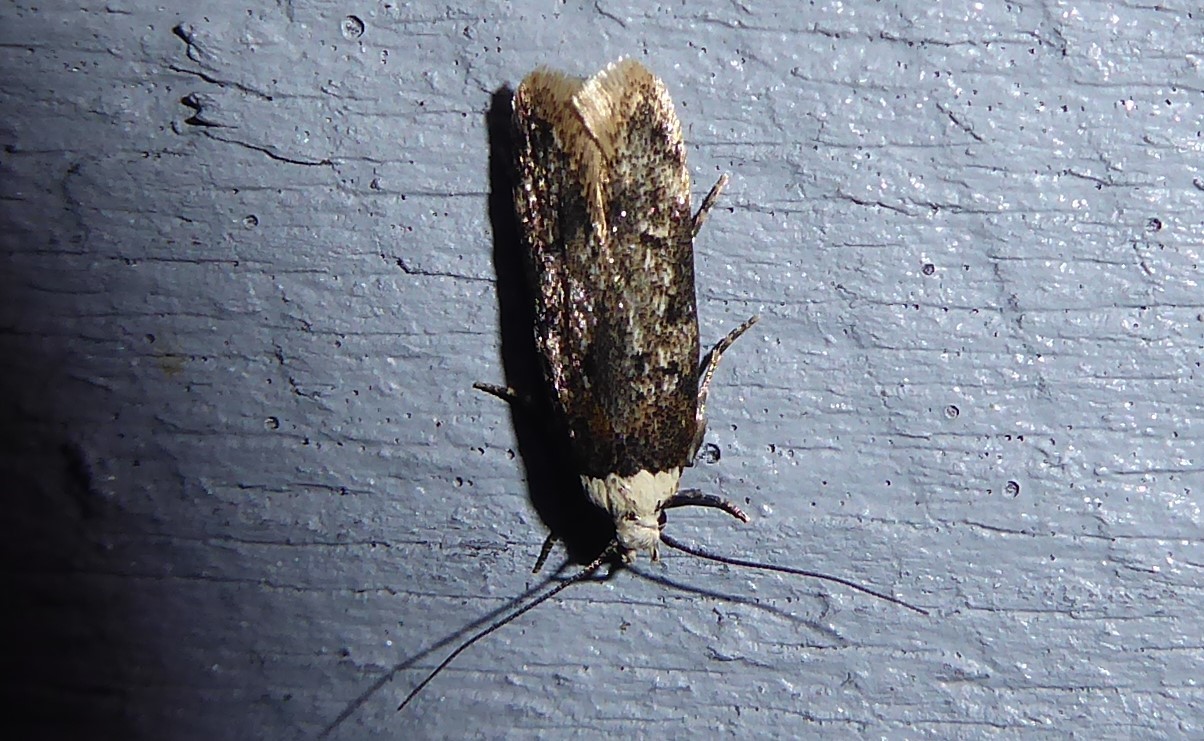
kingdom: Animalia
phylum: Arthropoda
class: Insecta
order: Lepidoptera
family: Oecophoridae
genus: Endrosis
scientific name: Endrosis sarcitrella
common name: White-shouldered house moth
